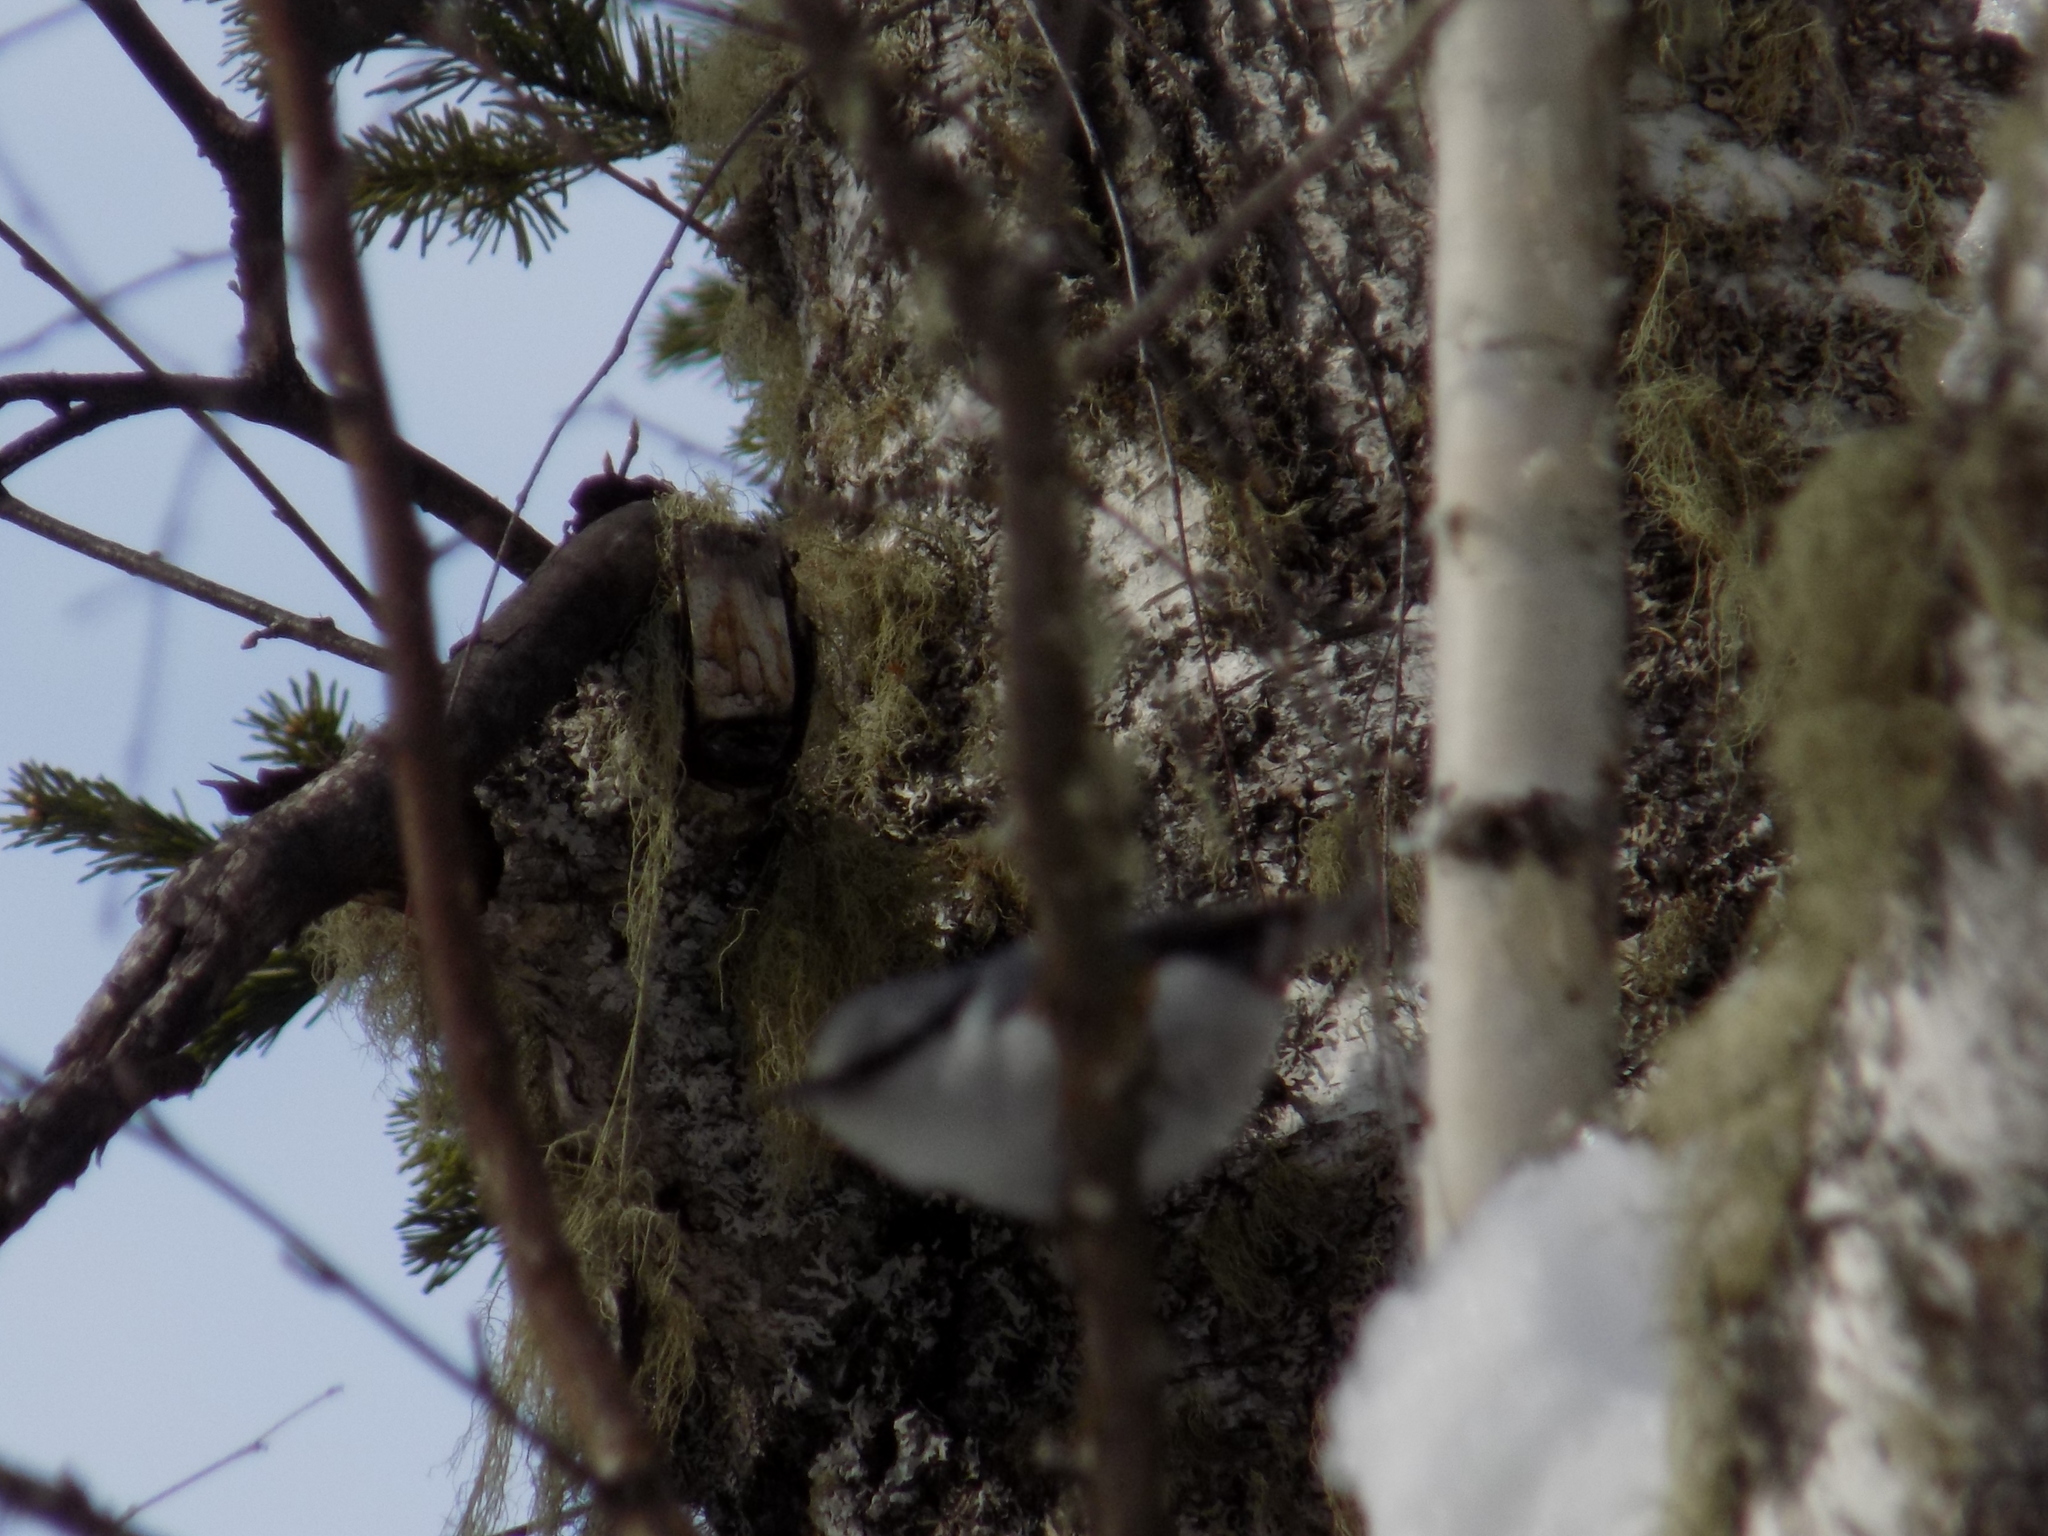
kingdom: Animalia
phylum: Chordata
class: Aves
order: Passeriformes
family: Sittidae
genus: Sitta
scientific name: Sitta europaea
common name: Eurasian nuthatch
